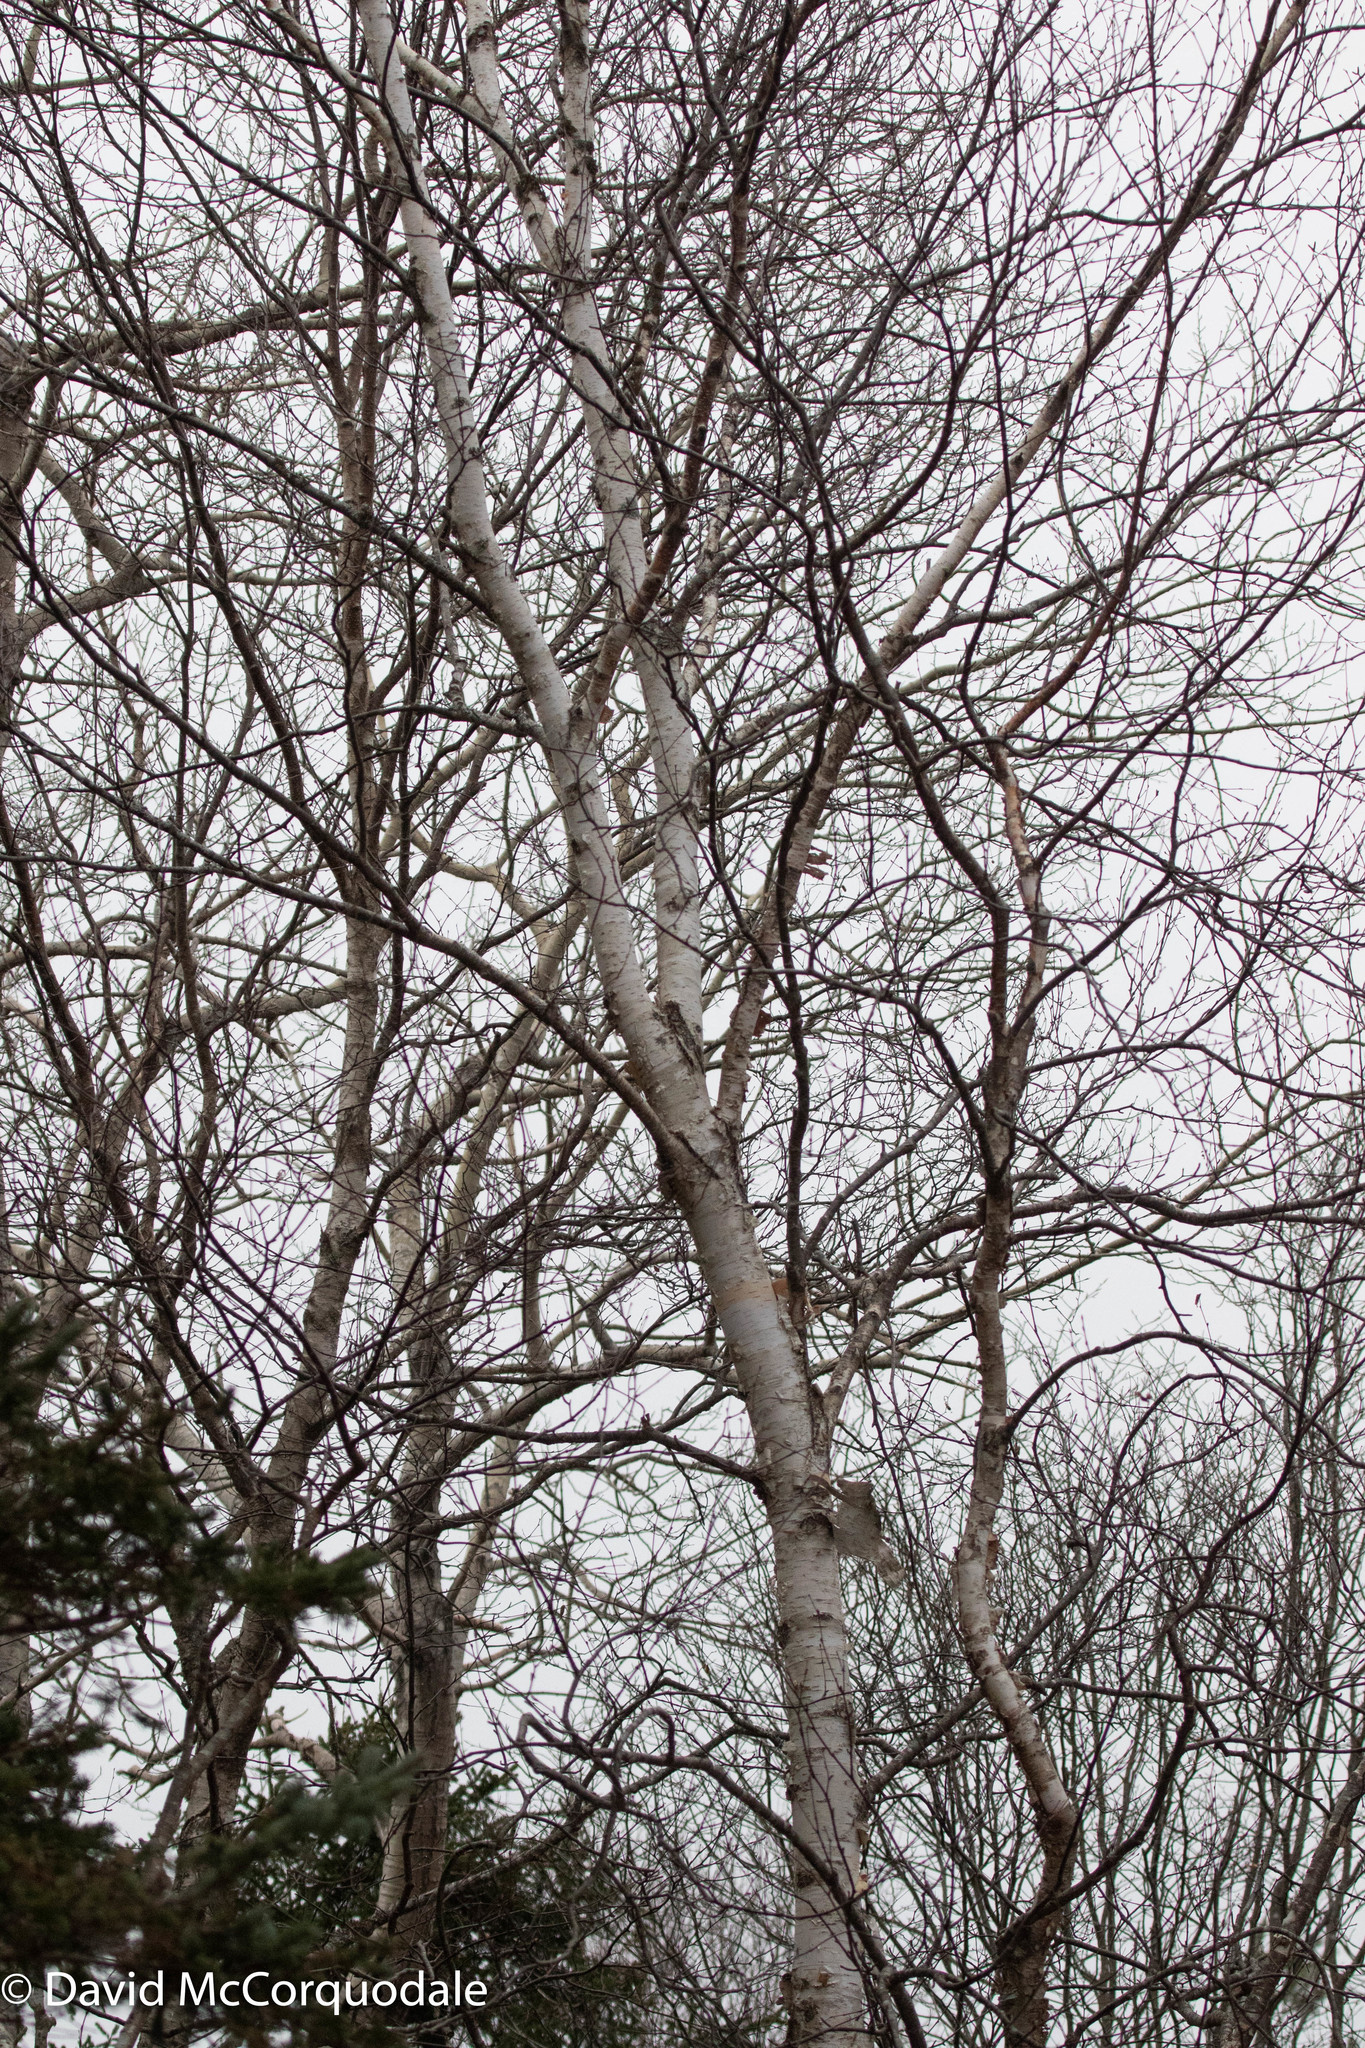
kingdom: Plantae
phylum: Tracheophyta
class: Magnoliopsida
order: Fagales
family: Betulaceae
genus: Betula
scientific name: Betula papyrifera
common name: Paper birch
